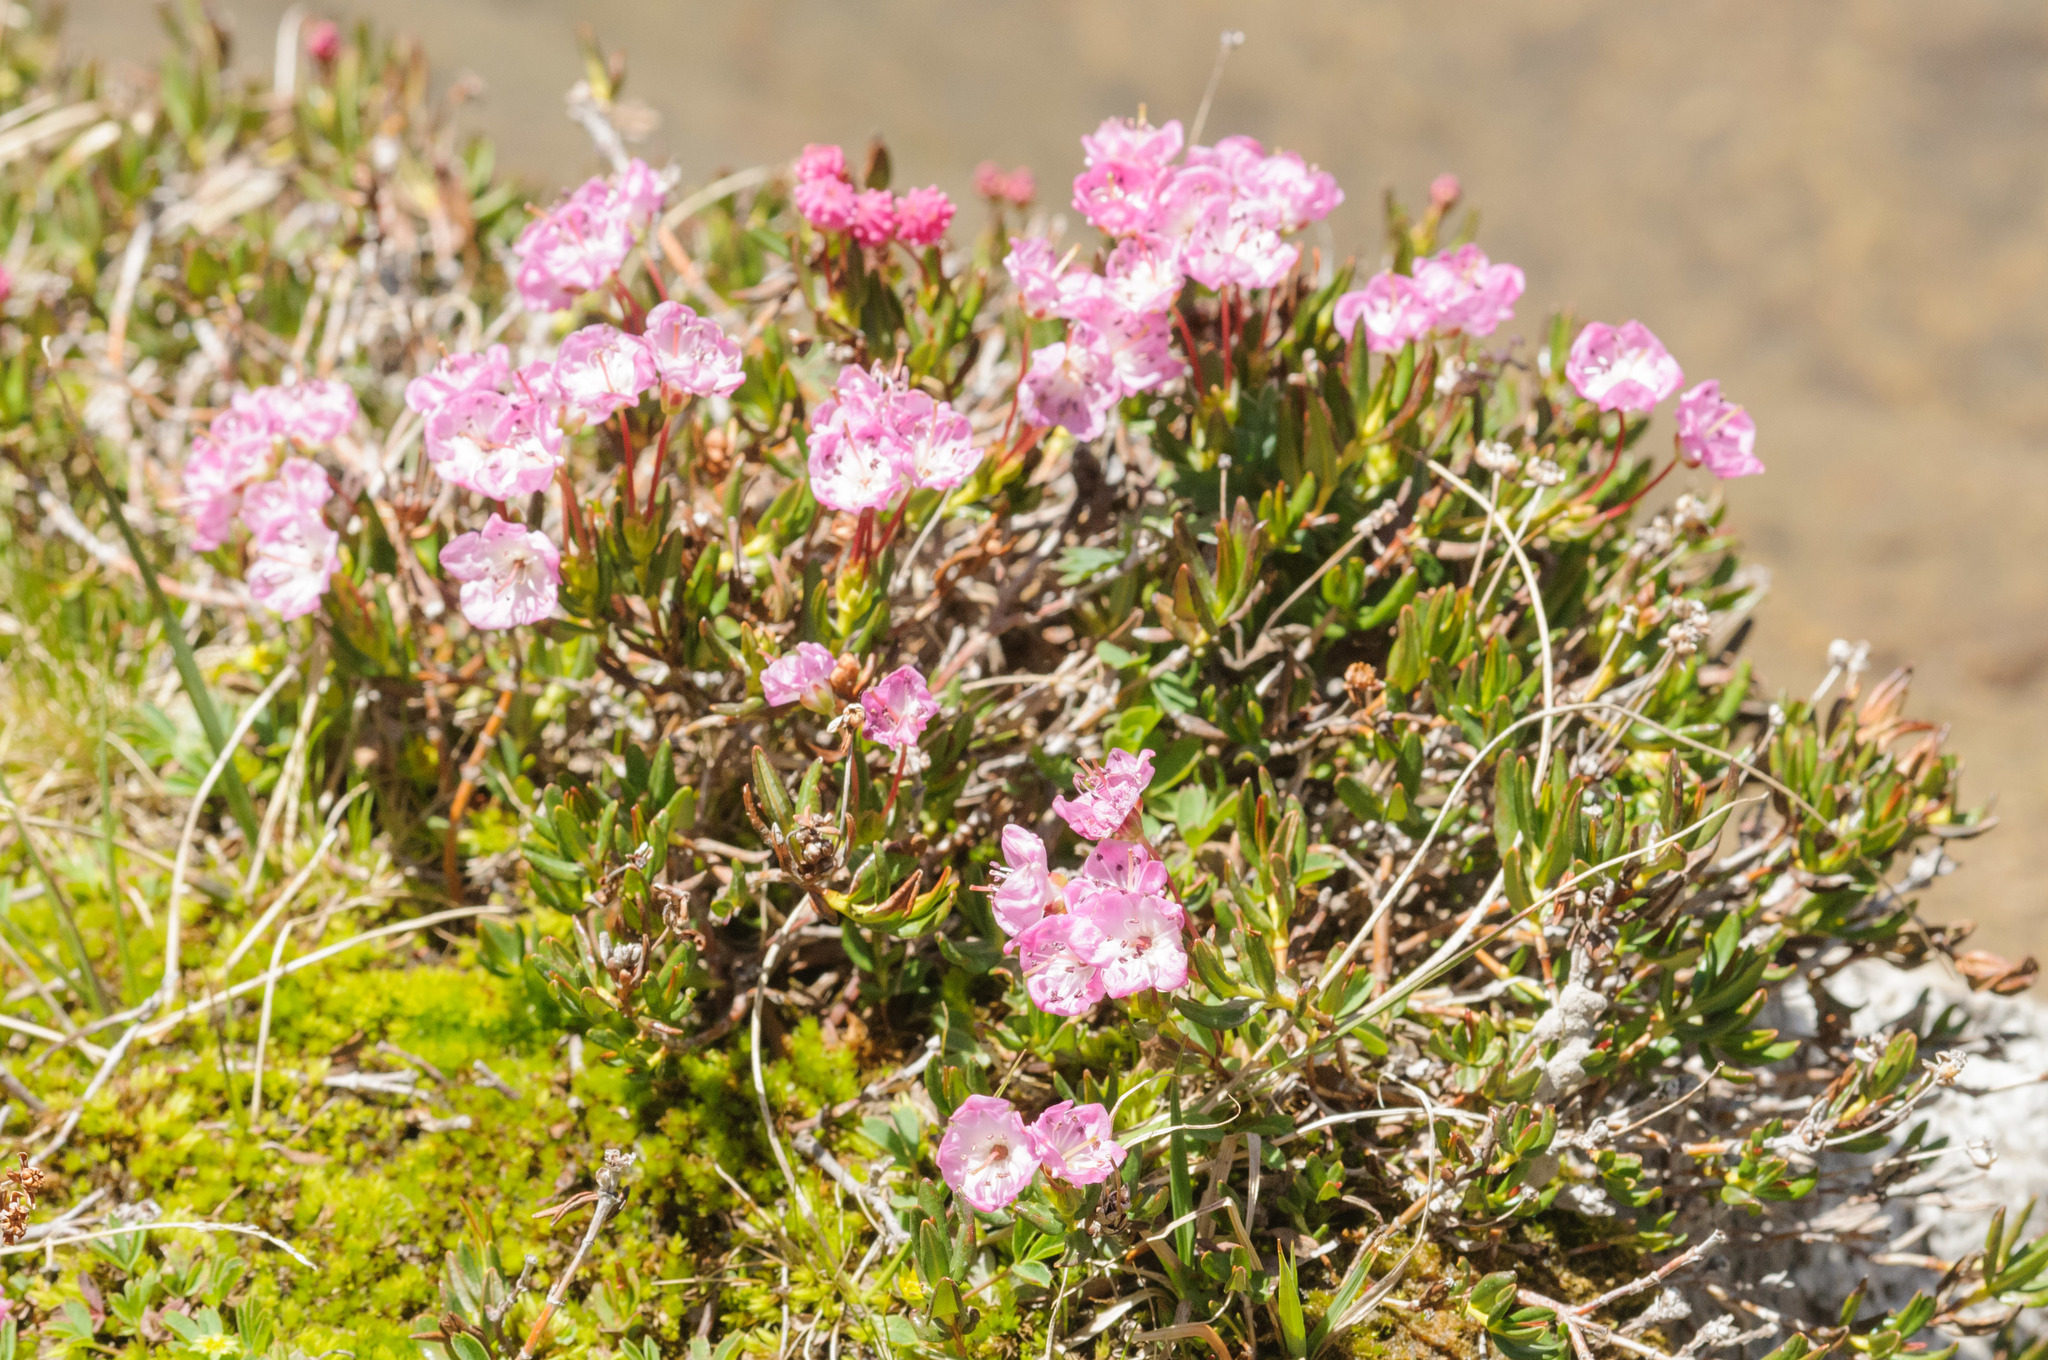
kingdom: Plantae
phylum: Tracheophyta
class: Magnoliopsida
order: Ericales
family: Ericaceae
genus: Kalmia
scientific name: Kalmia microphylla
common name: Alpine bog laurel
